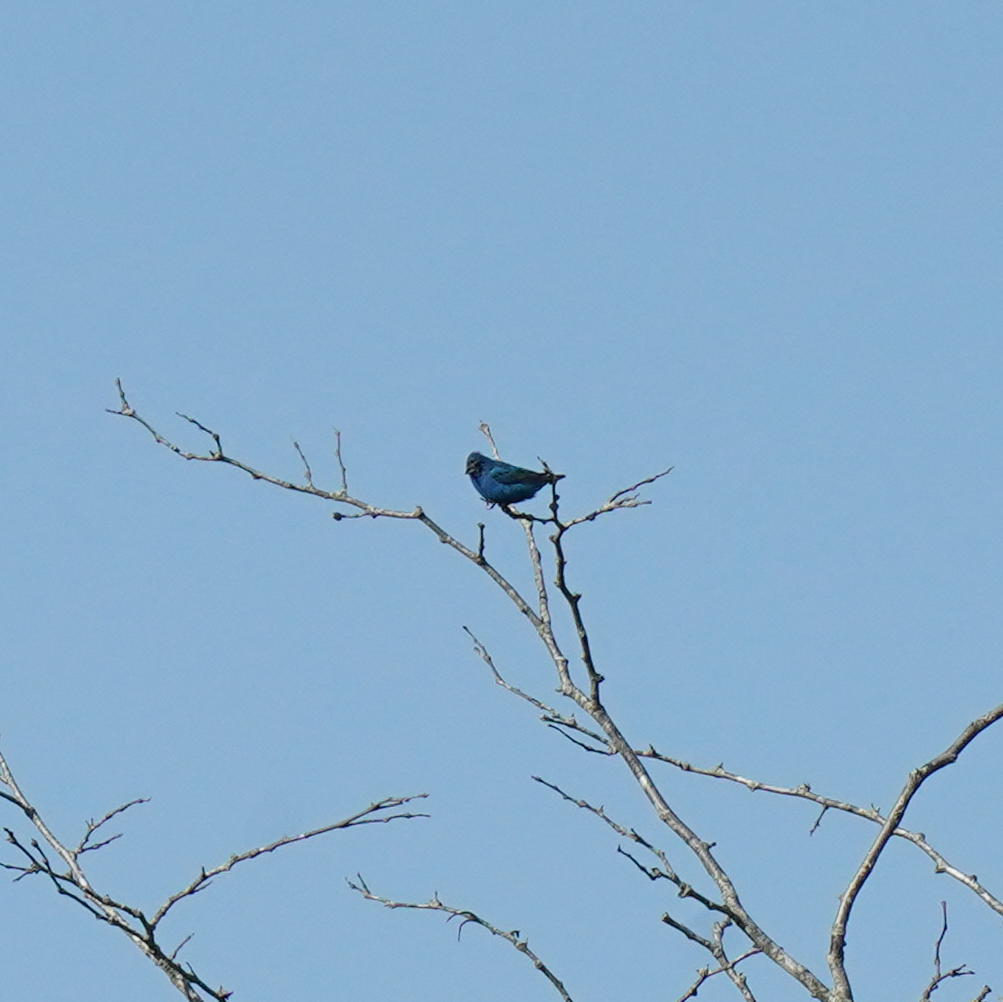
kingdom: Animalia
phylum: Chordata
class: Aves
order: Passeriformes
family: Cardinalidae
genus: Passerina
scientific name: Passerina cyanea
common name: Indigo bunting
